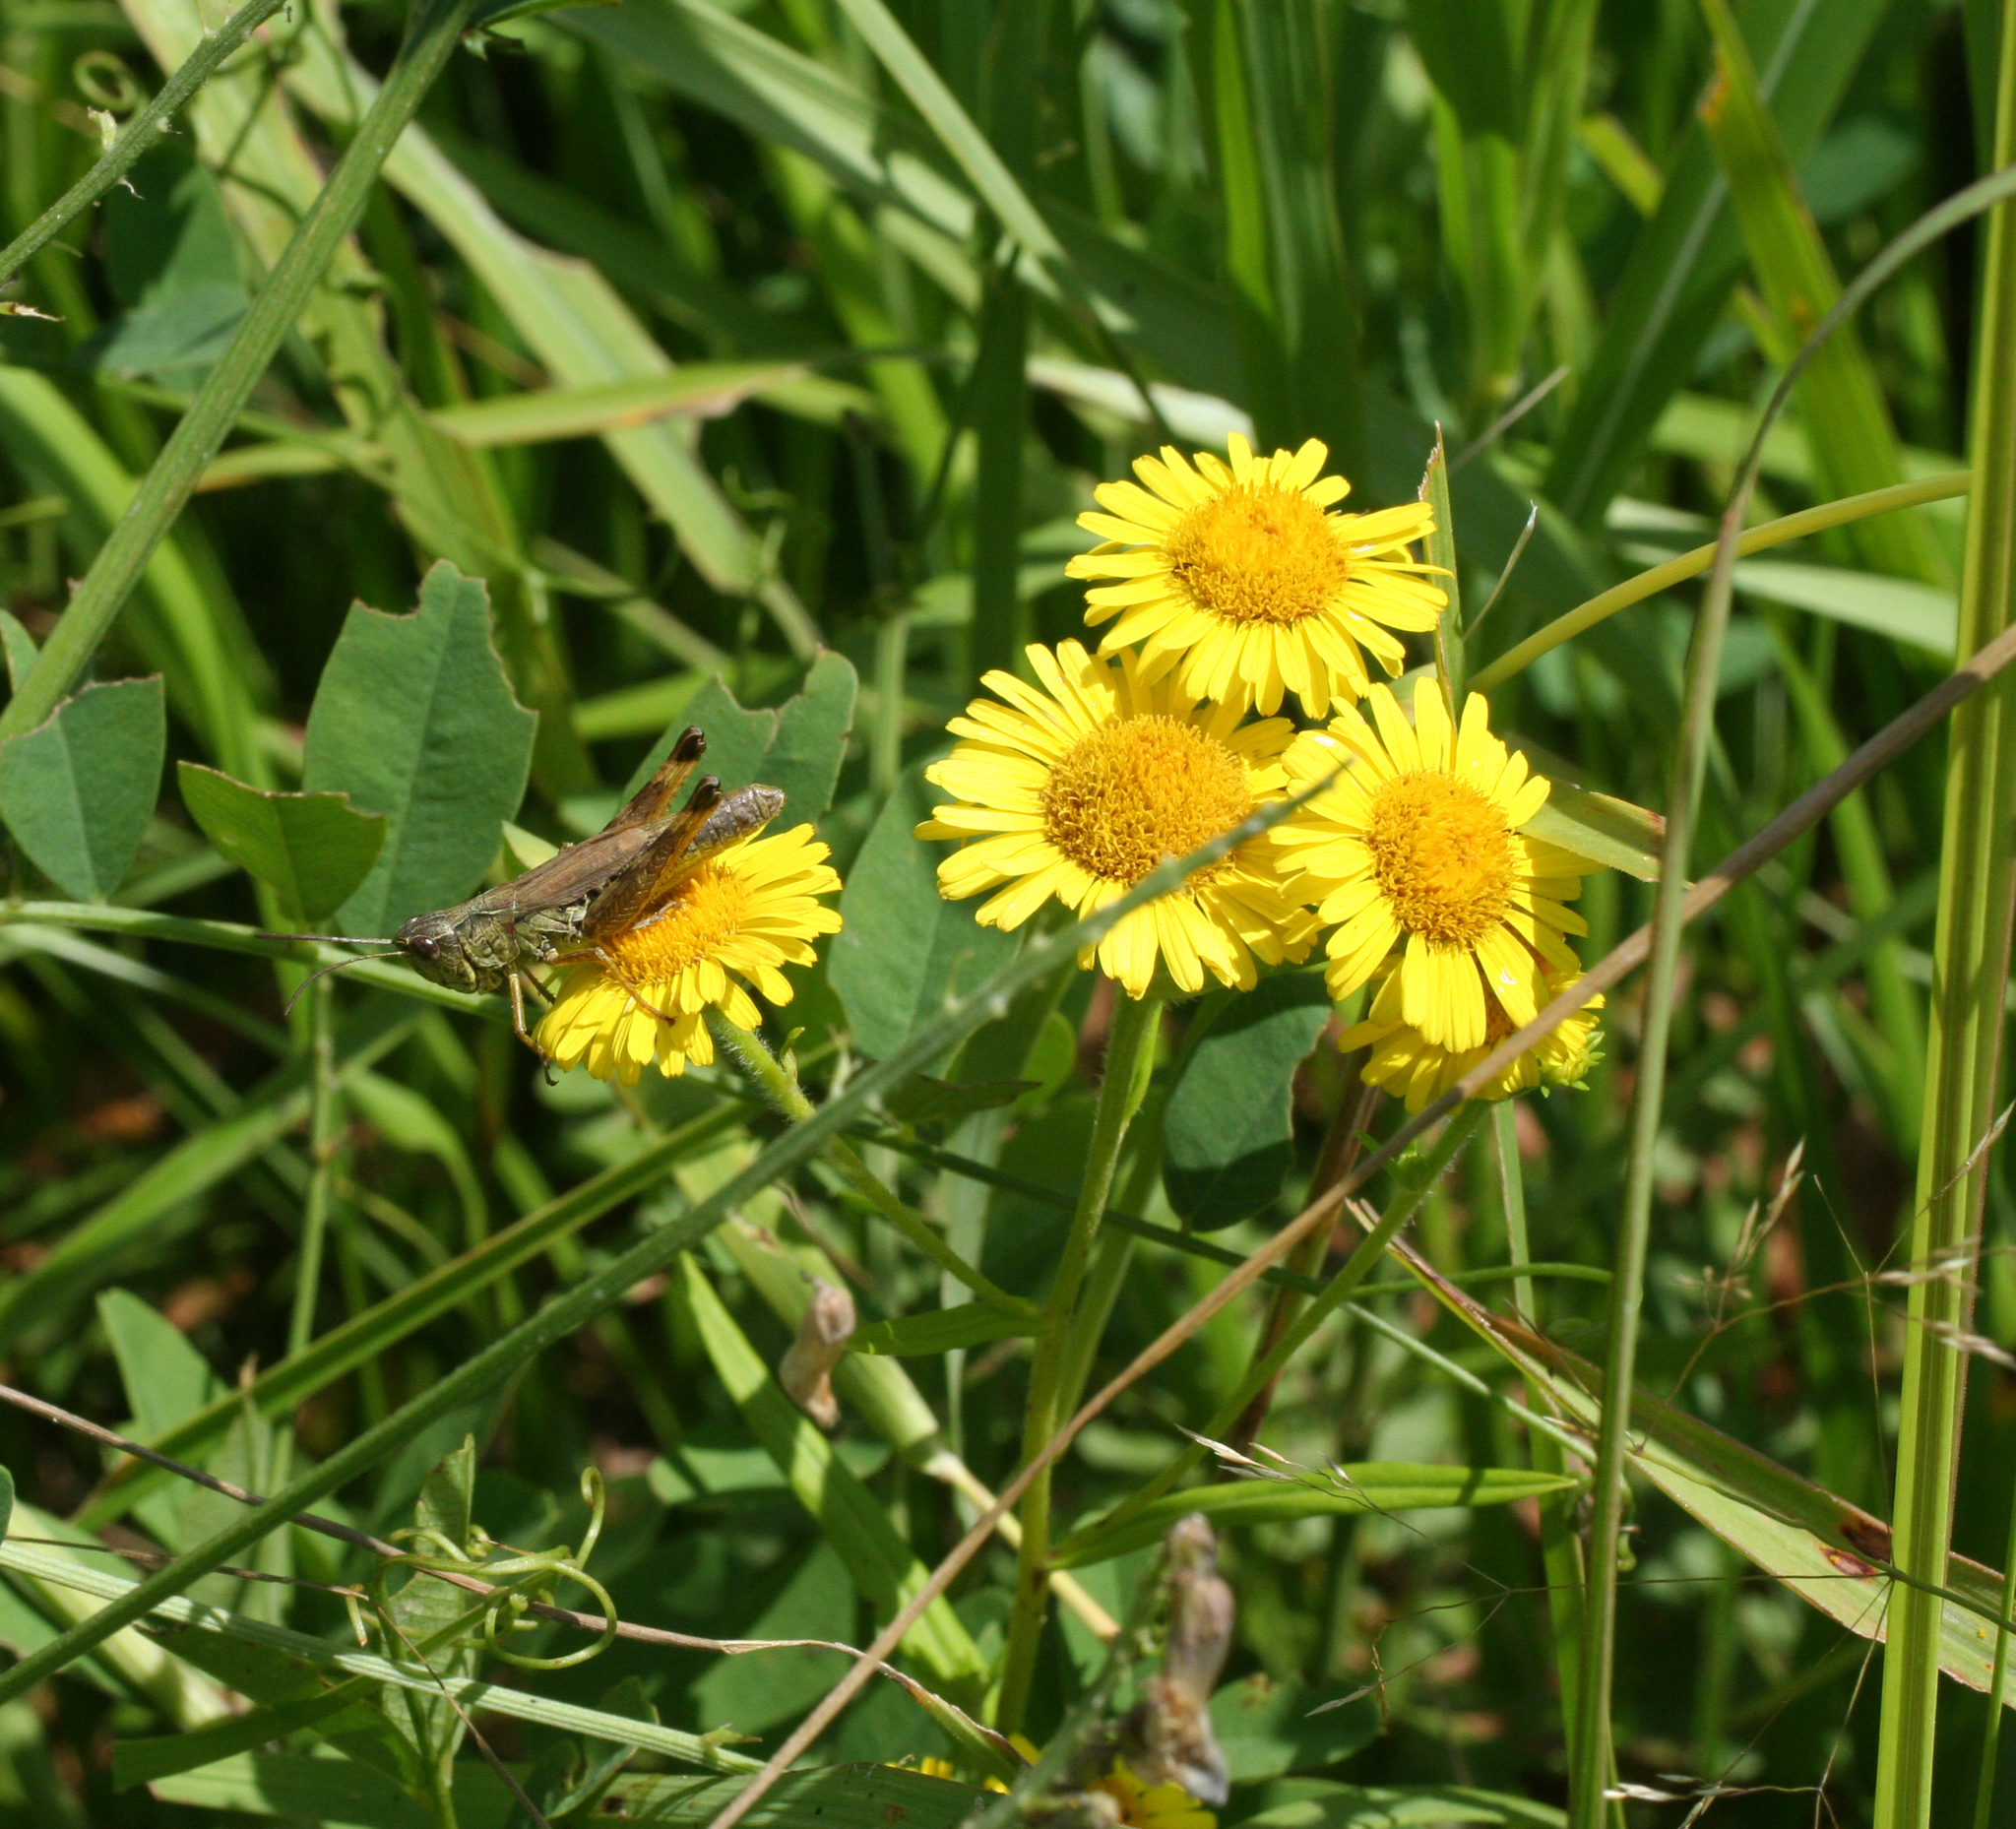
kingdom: Plantae
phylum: Tracheophyta
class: Magnoliopsida
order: Asterales
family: Asteraceae
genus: Inula
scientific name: Inula linariifolia
